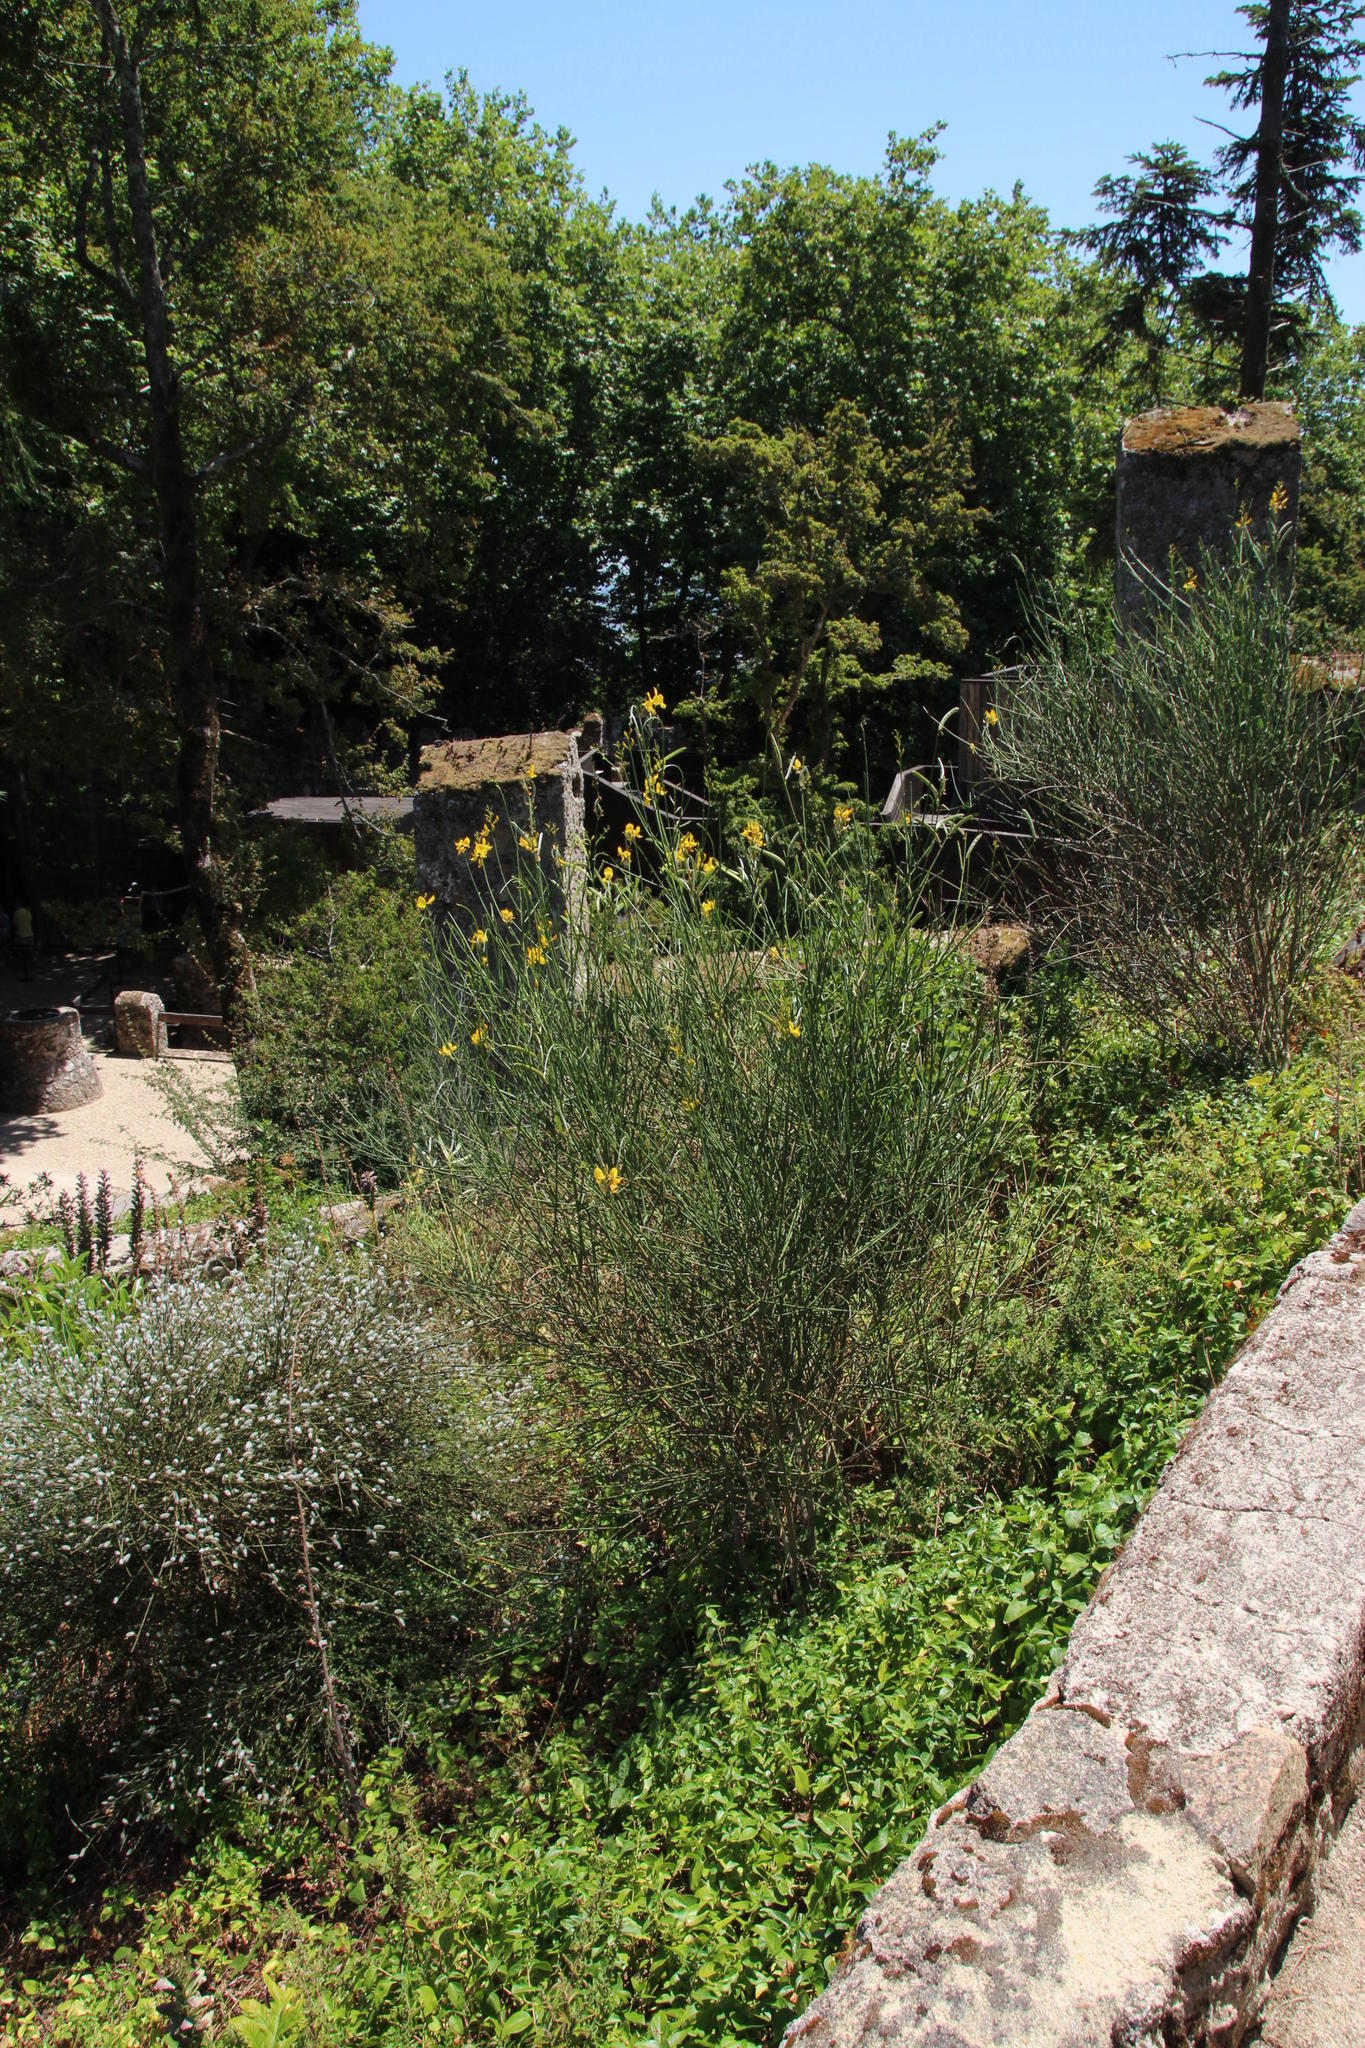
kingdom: Plantae
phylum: Tracheophyta
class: Magnoliopsida
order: Fabales
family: Fabaceae
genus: Spartium
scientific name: Spartium junceum
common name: Spanish broom
